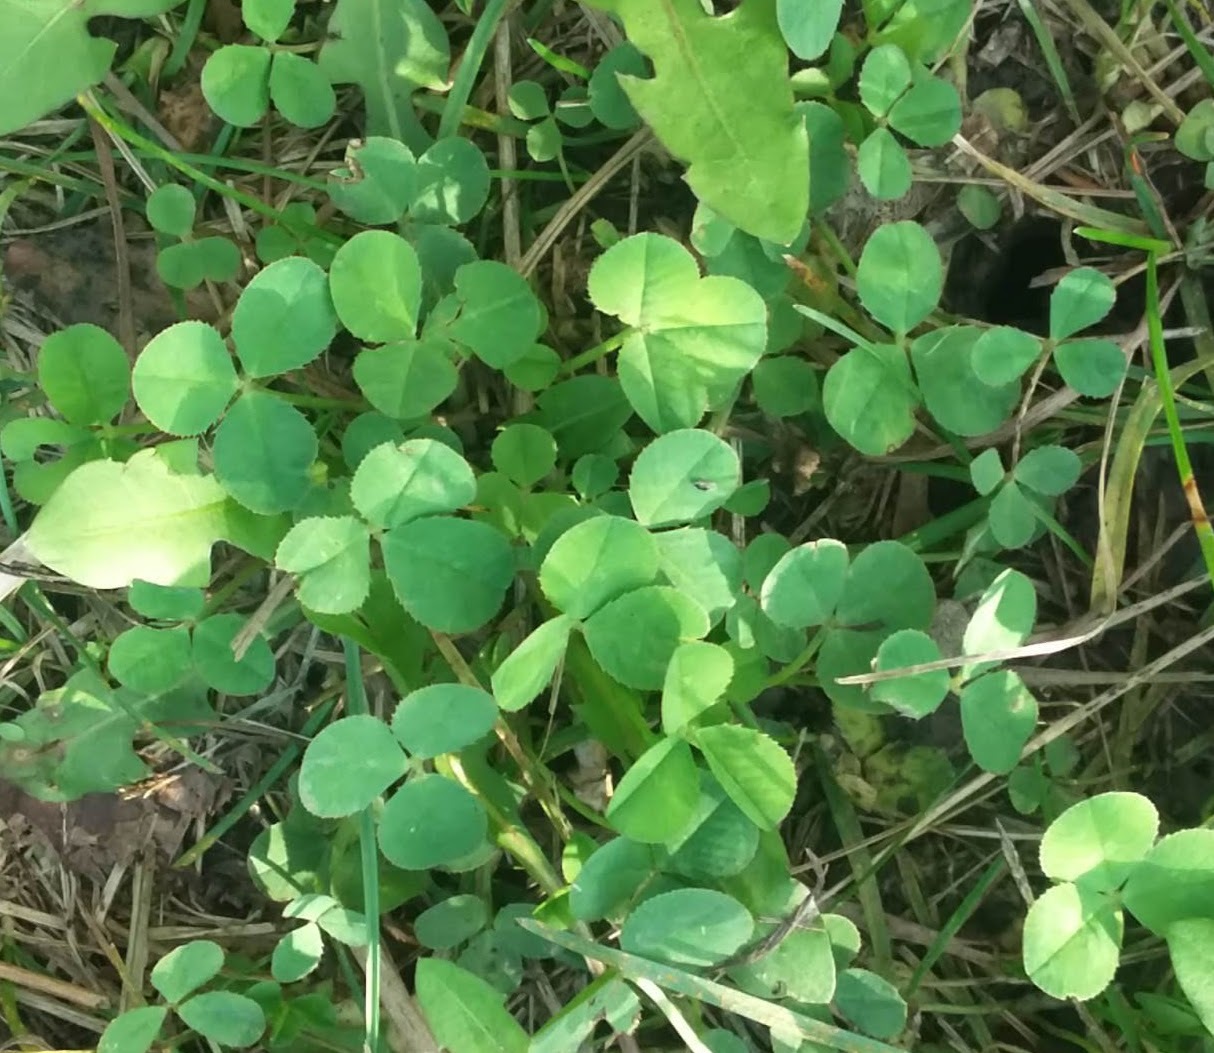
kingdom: Plantae
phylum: Tracheophyta
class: Magnoliopsida
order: Fabales
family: Fabaceae
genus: Trifolium
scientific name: Trifolium repens
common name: White clover
